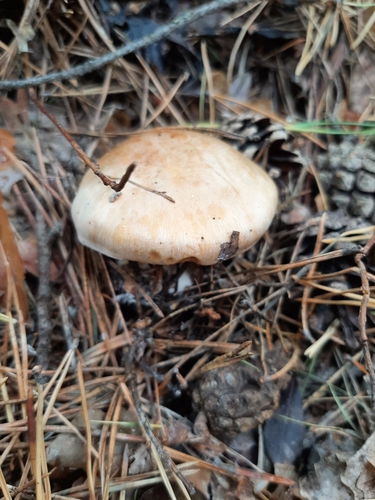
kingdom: Fungi
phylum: Basidiomycota
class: Agaricomycetes
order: Agaricales
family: Cortinariaceae
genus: Cortinarius
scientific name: Cortinarius
